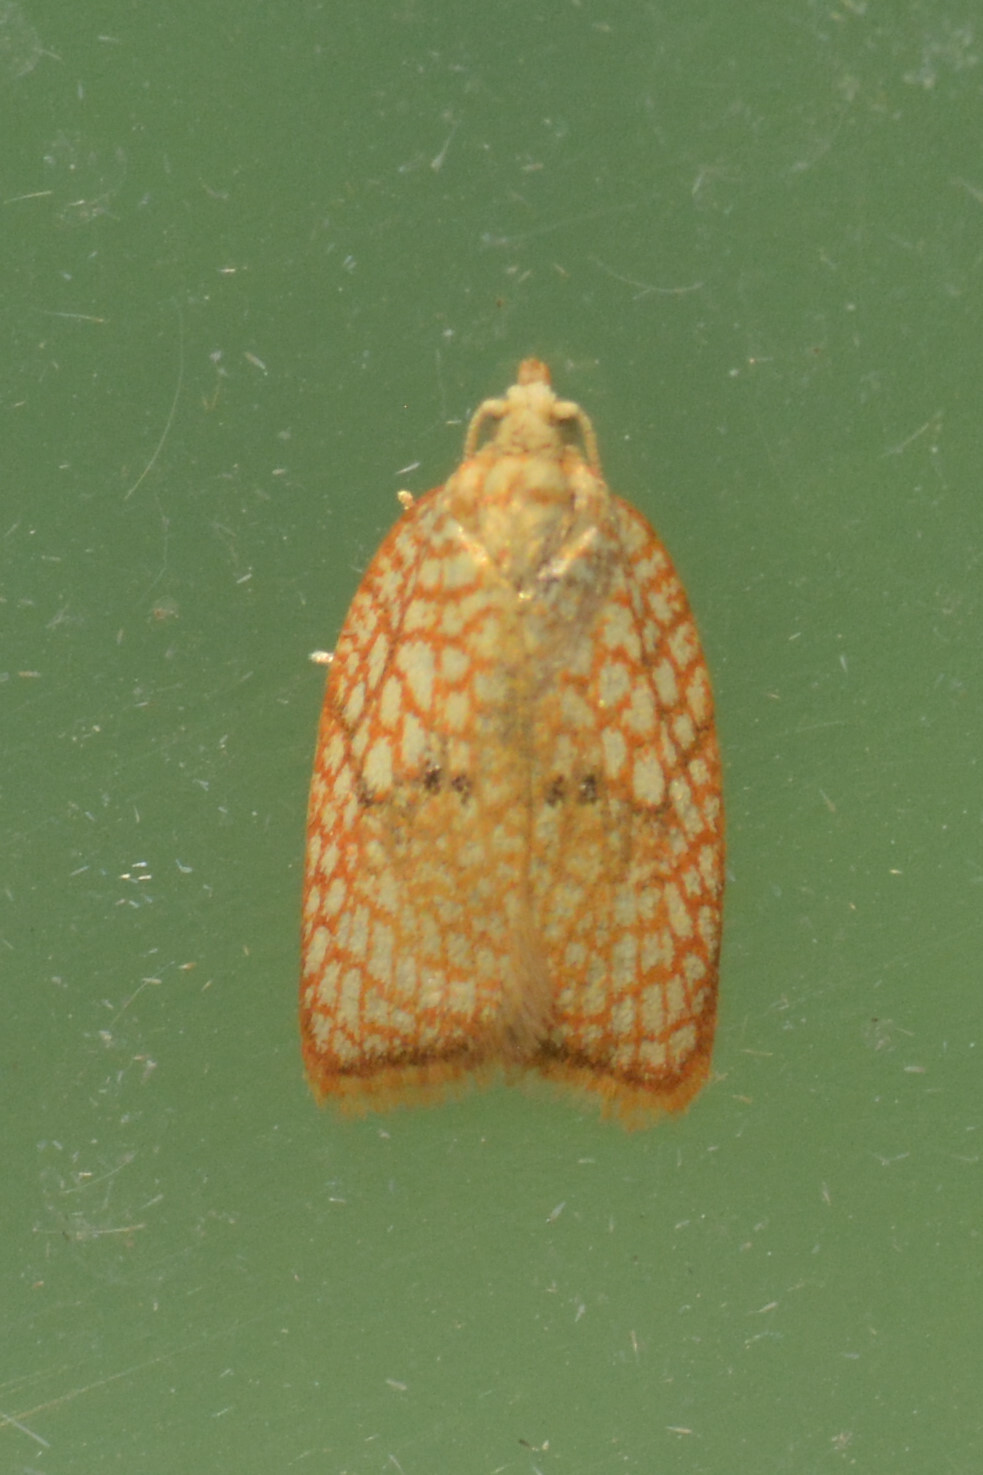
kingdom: Animalia
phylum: Arthropoda
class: Insecta
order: Lepidoptera
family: Tortricidae
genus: Acleris
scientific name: Acleris forsskaleana
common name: Maple button
